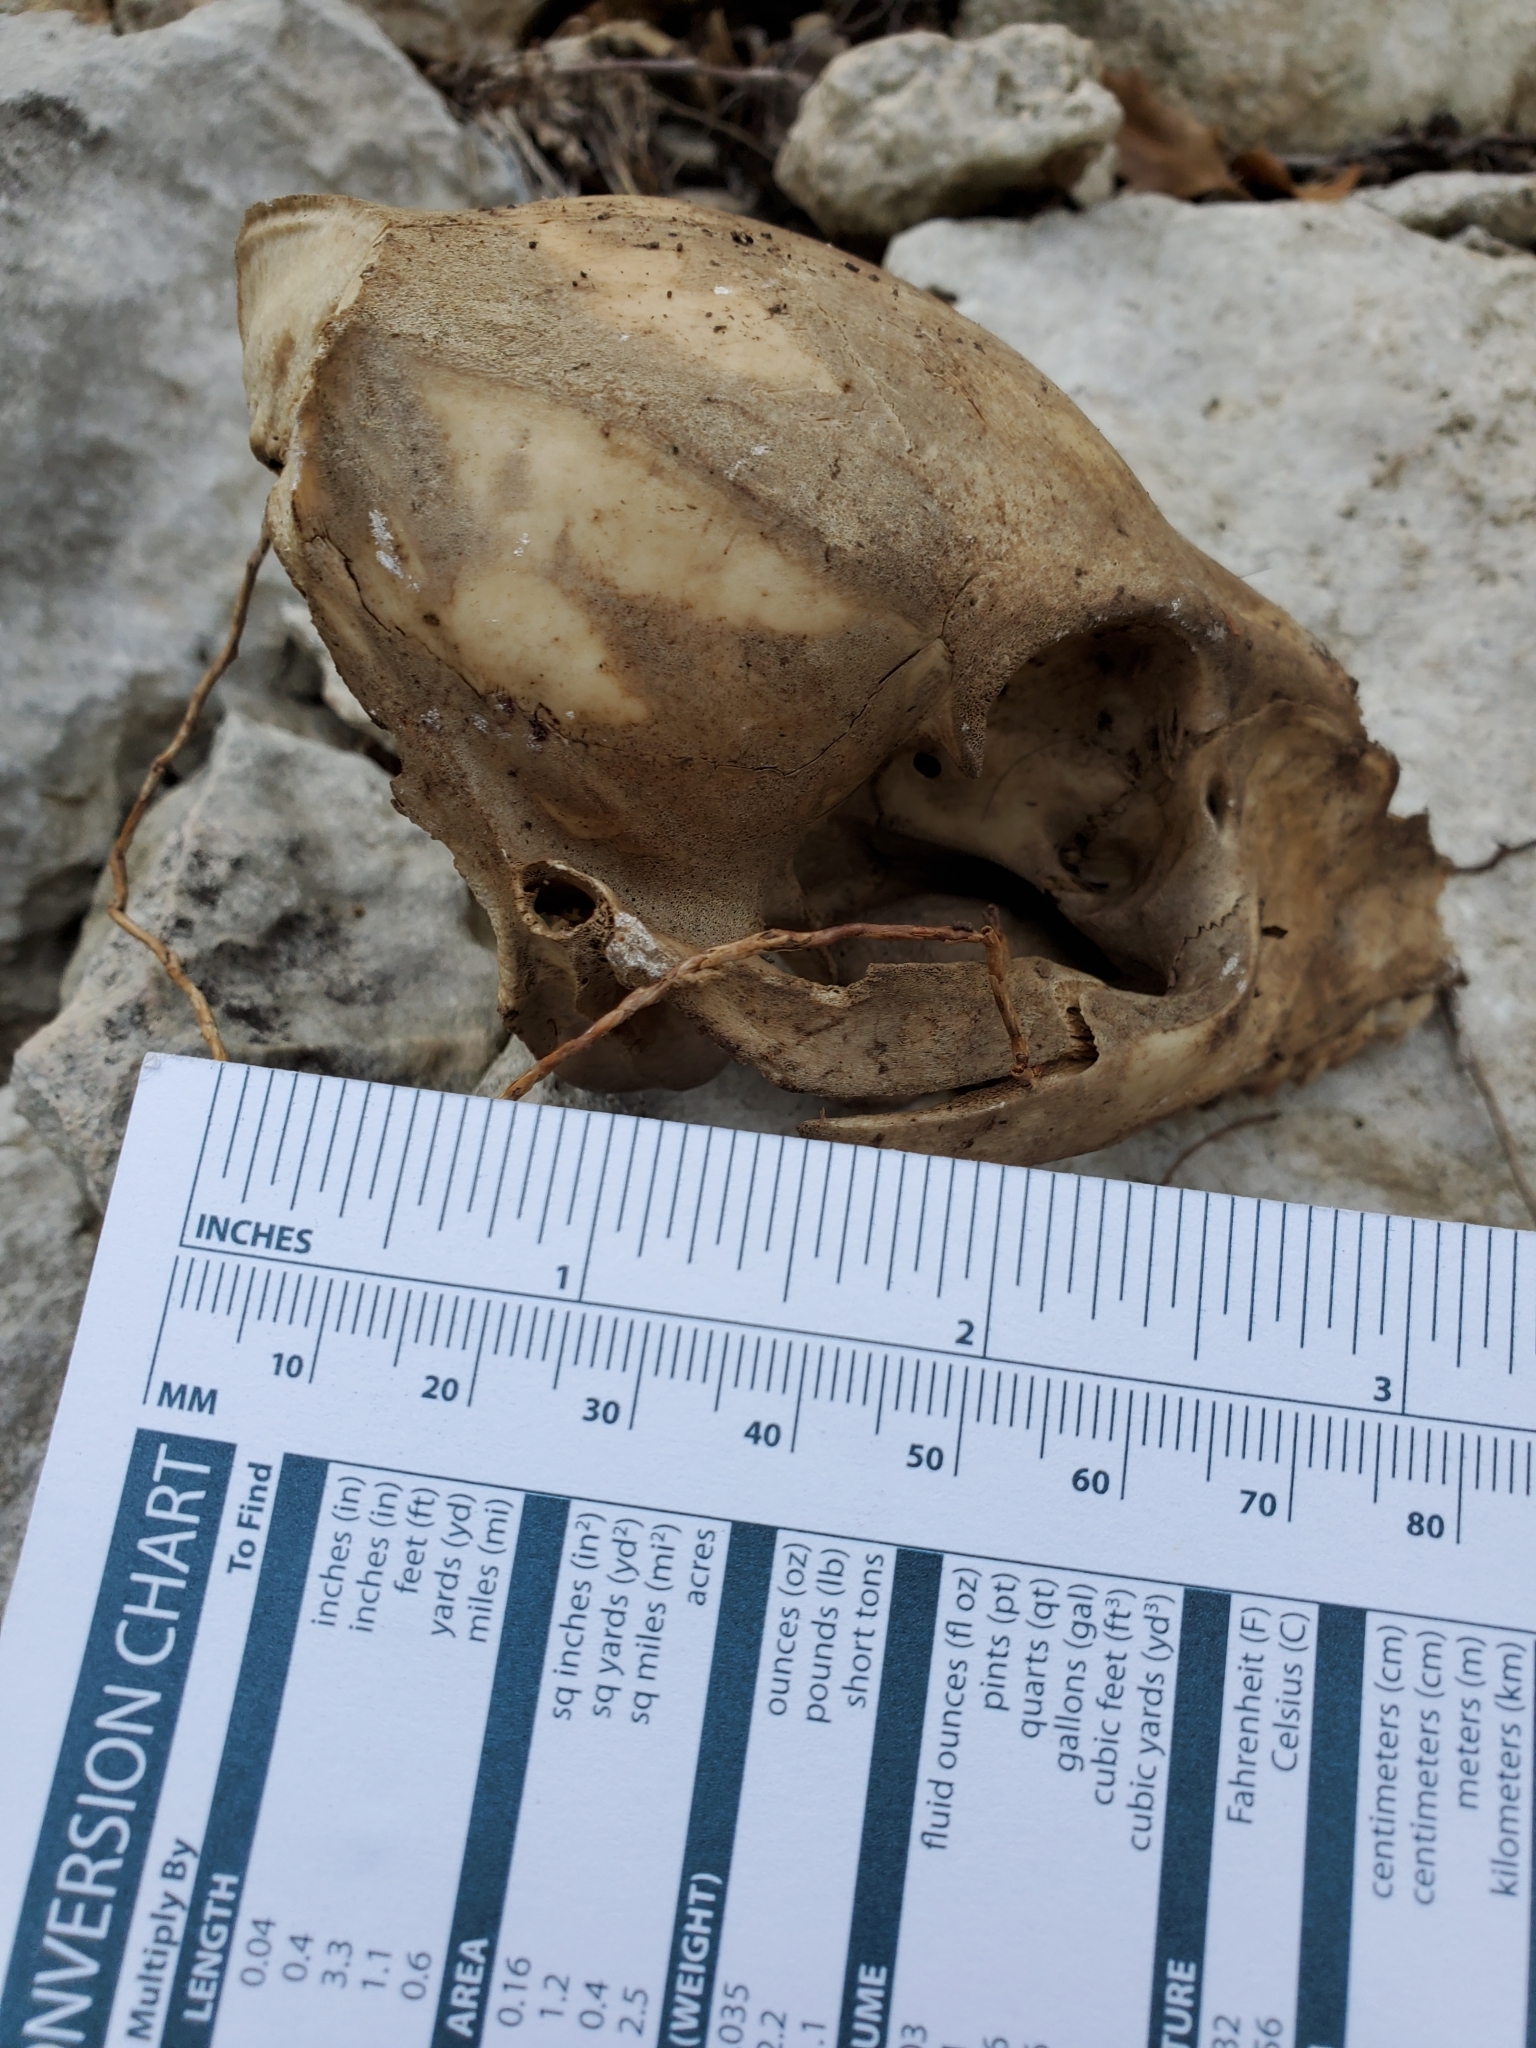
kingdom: Animalia
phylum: Chordata
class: Mammalia
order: Artiodactyla
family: Suidae
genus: Sus
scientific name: Sus scrofa
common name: Wild boar
